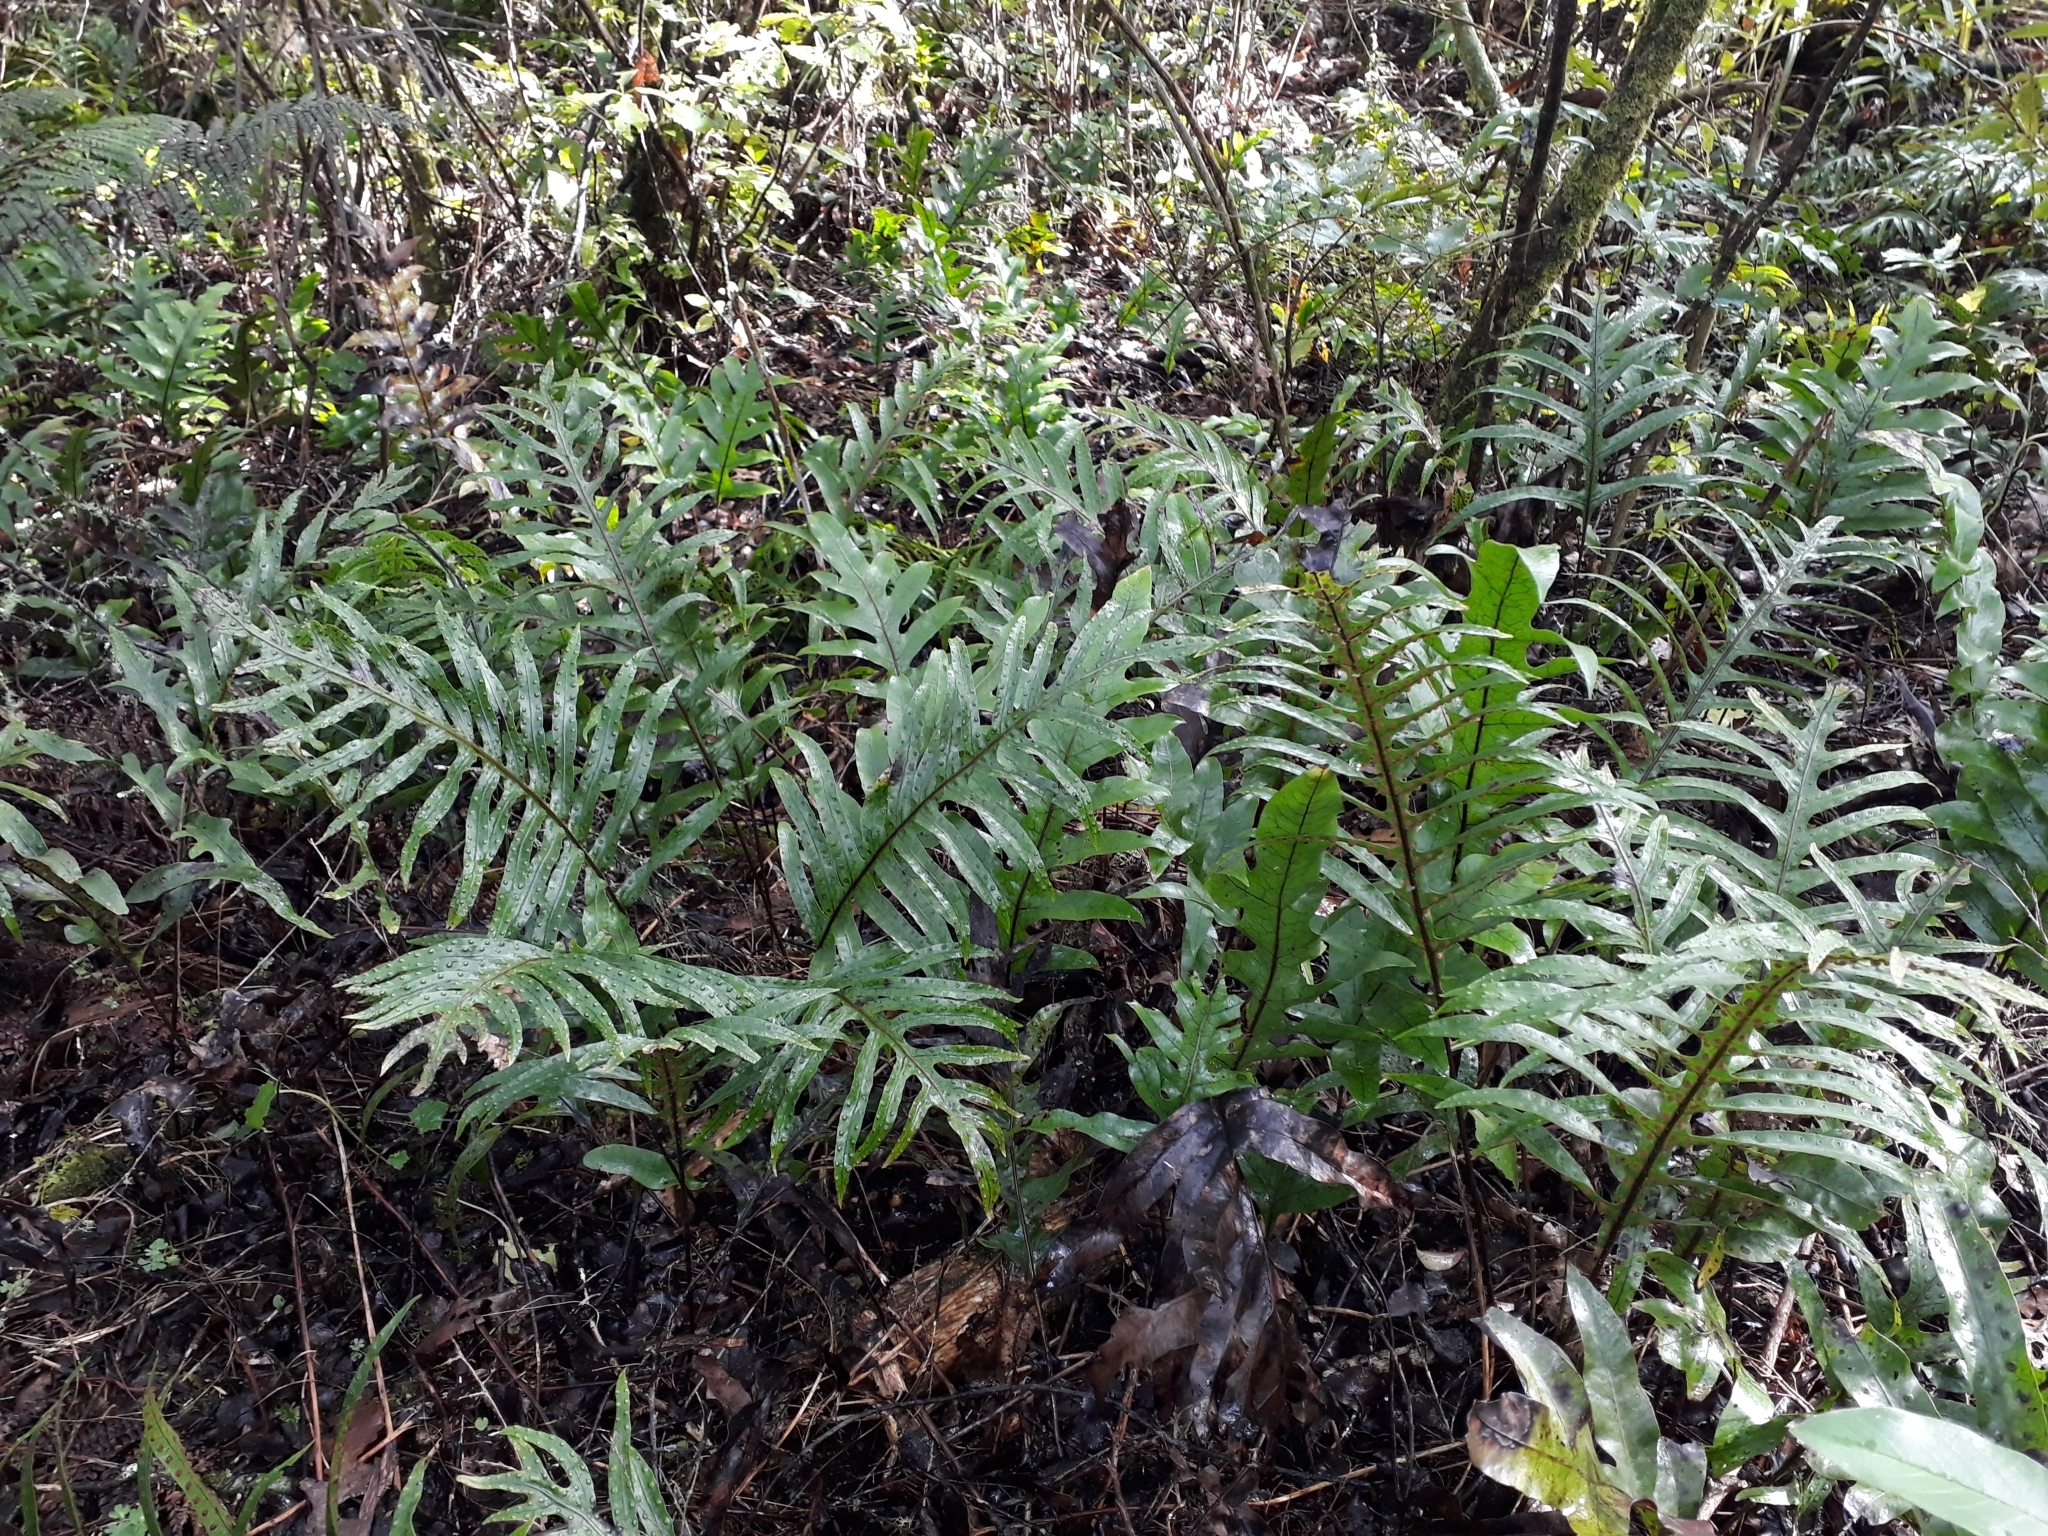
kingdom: Plantae
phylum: Tracheophyta
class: Polypodiopsida
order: Polypodiales
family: Polypodiaceae
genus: Lecanopteris
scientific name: Lecanopteris pustulata
